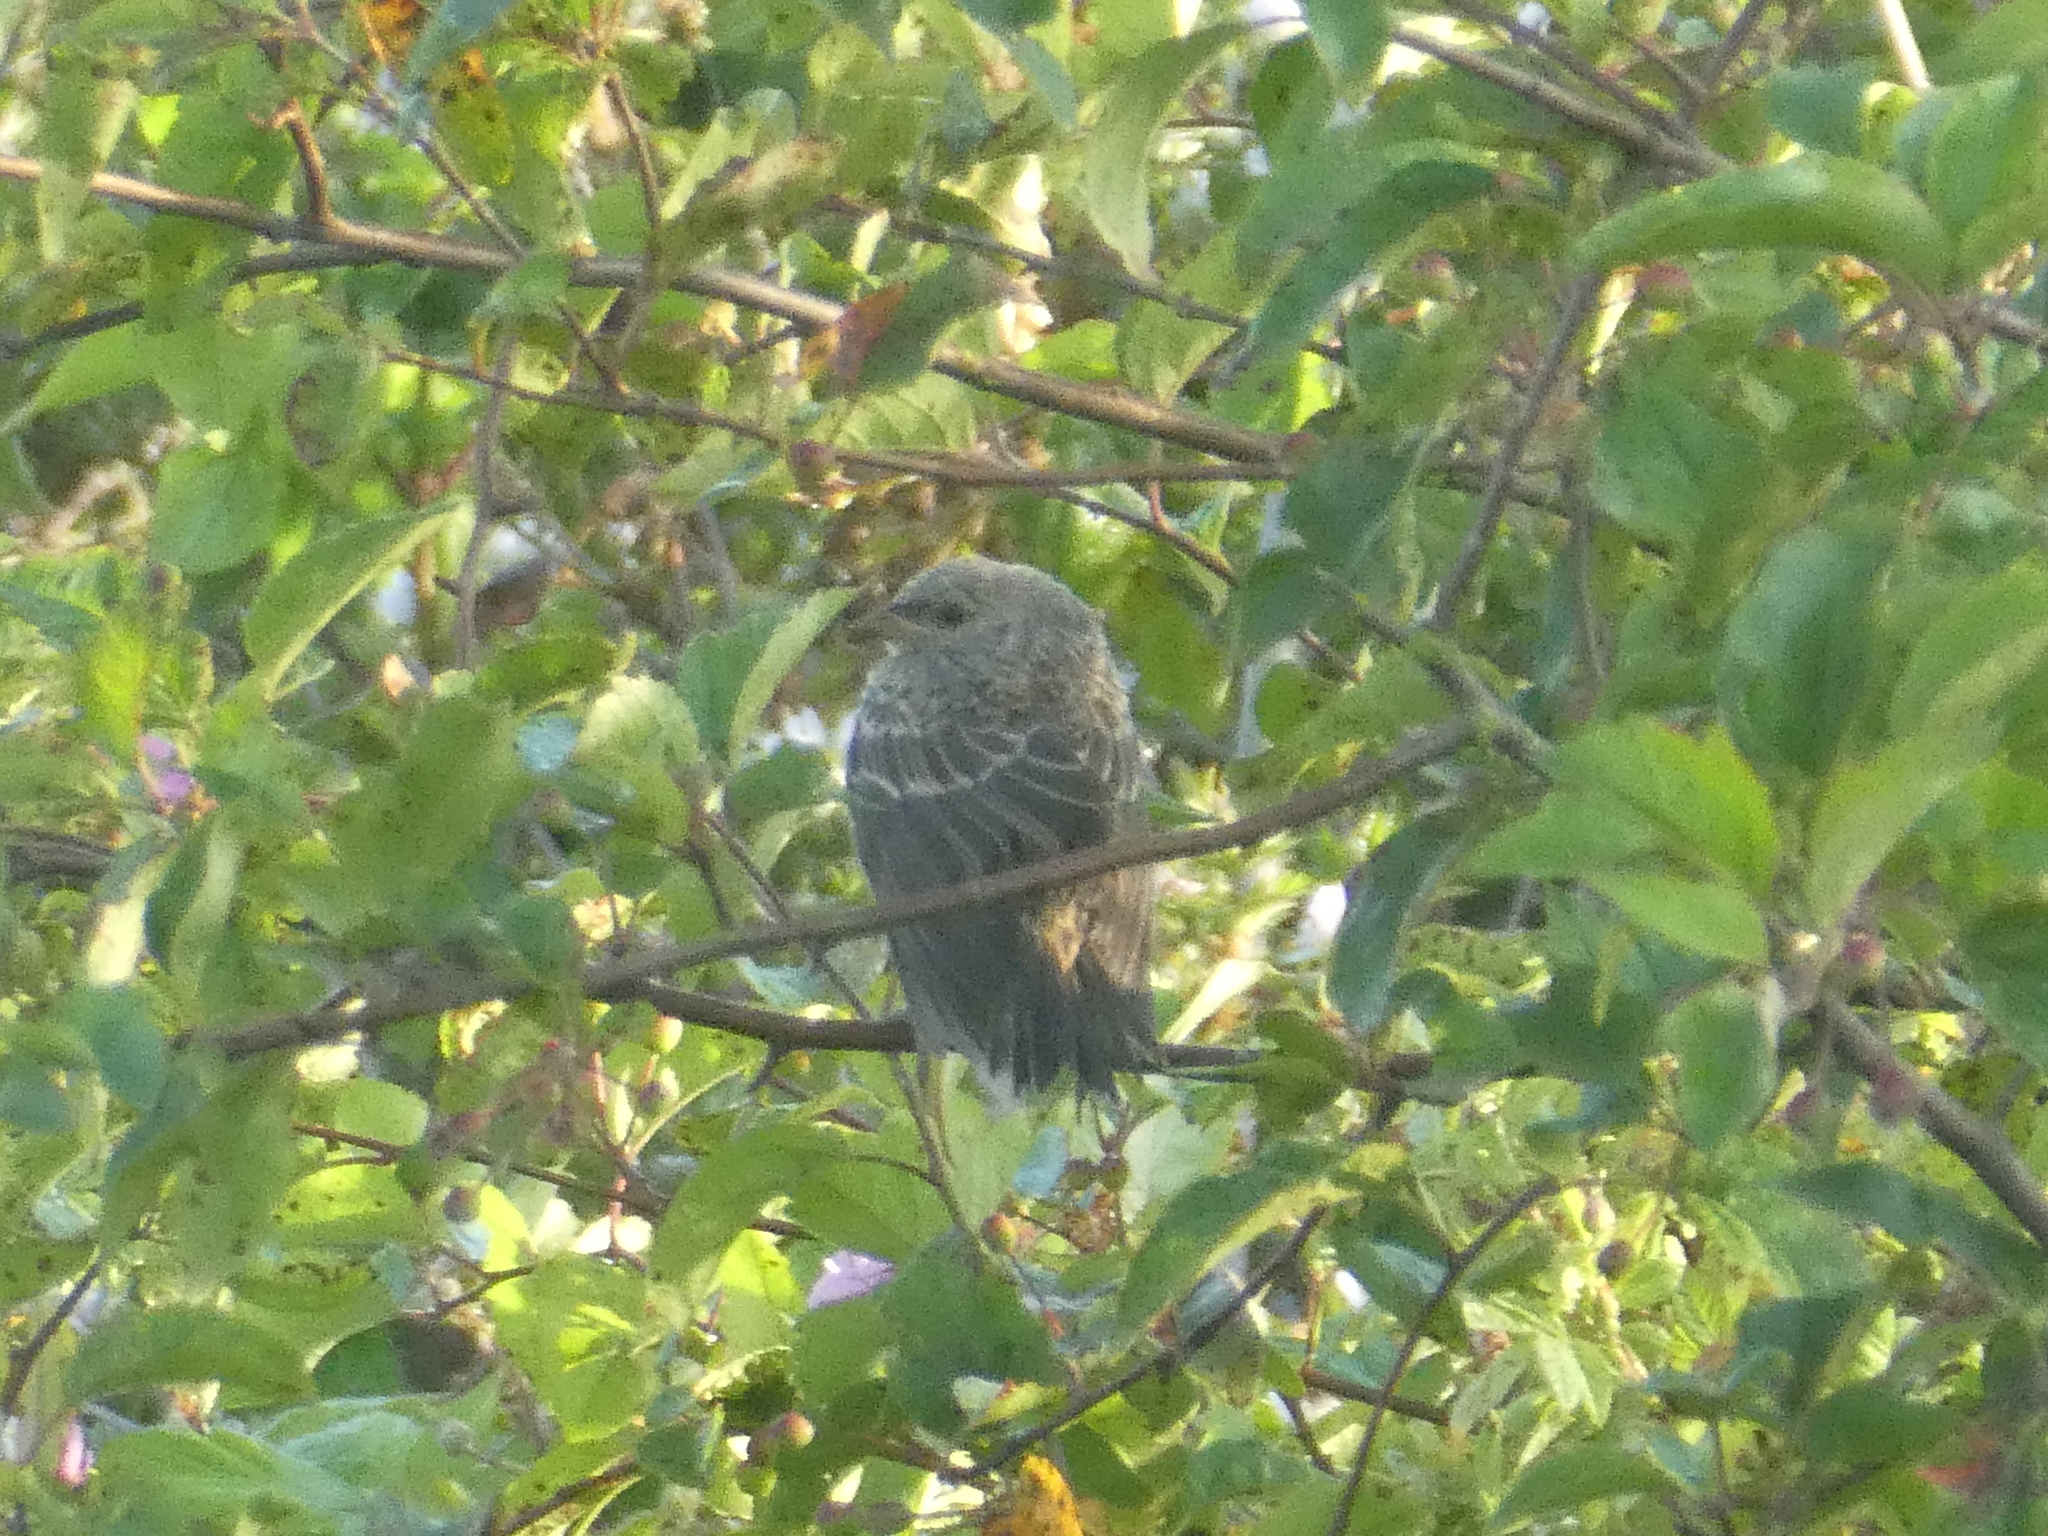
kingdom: Animalia
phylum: Chordata
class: Aves
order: Passeriformes
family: Icteridae
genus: Molothrus
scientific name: Molothrus ater
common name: Brown-headed cowbird
